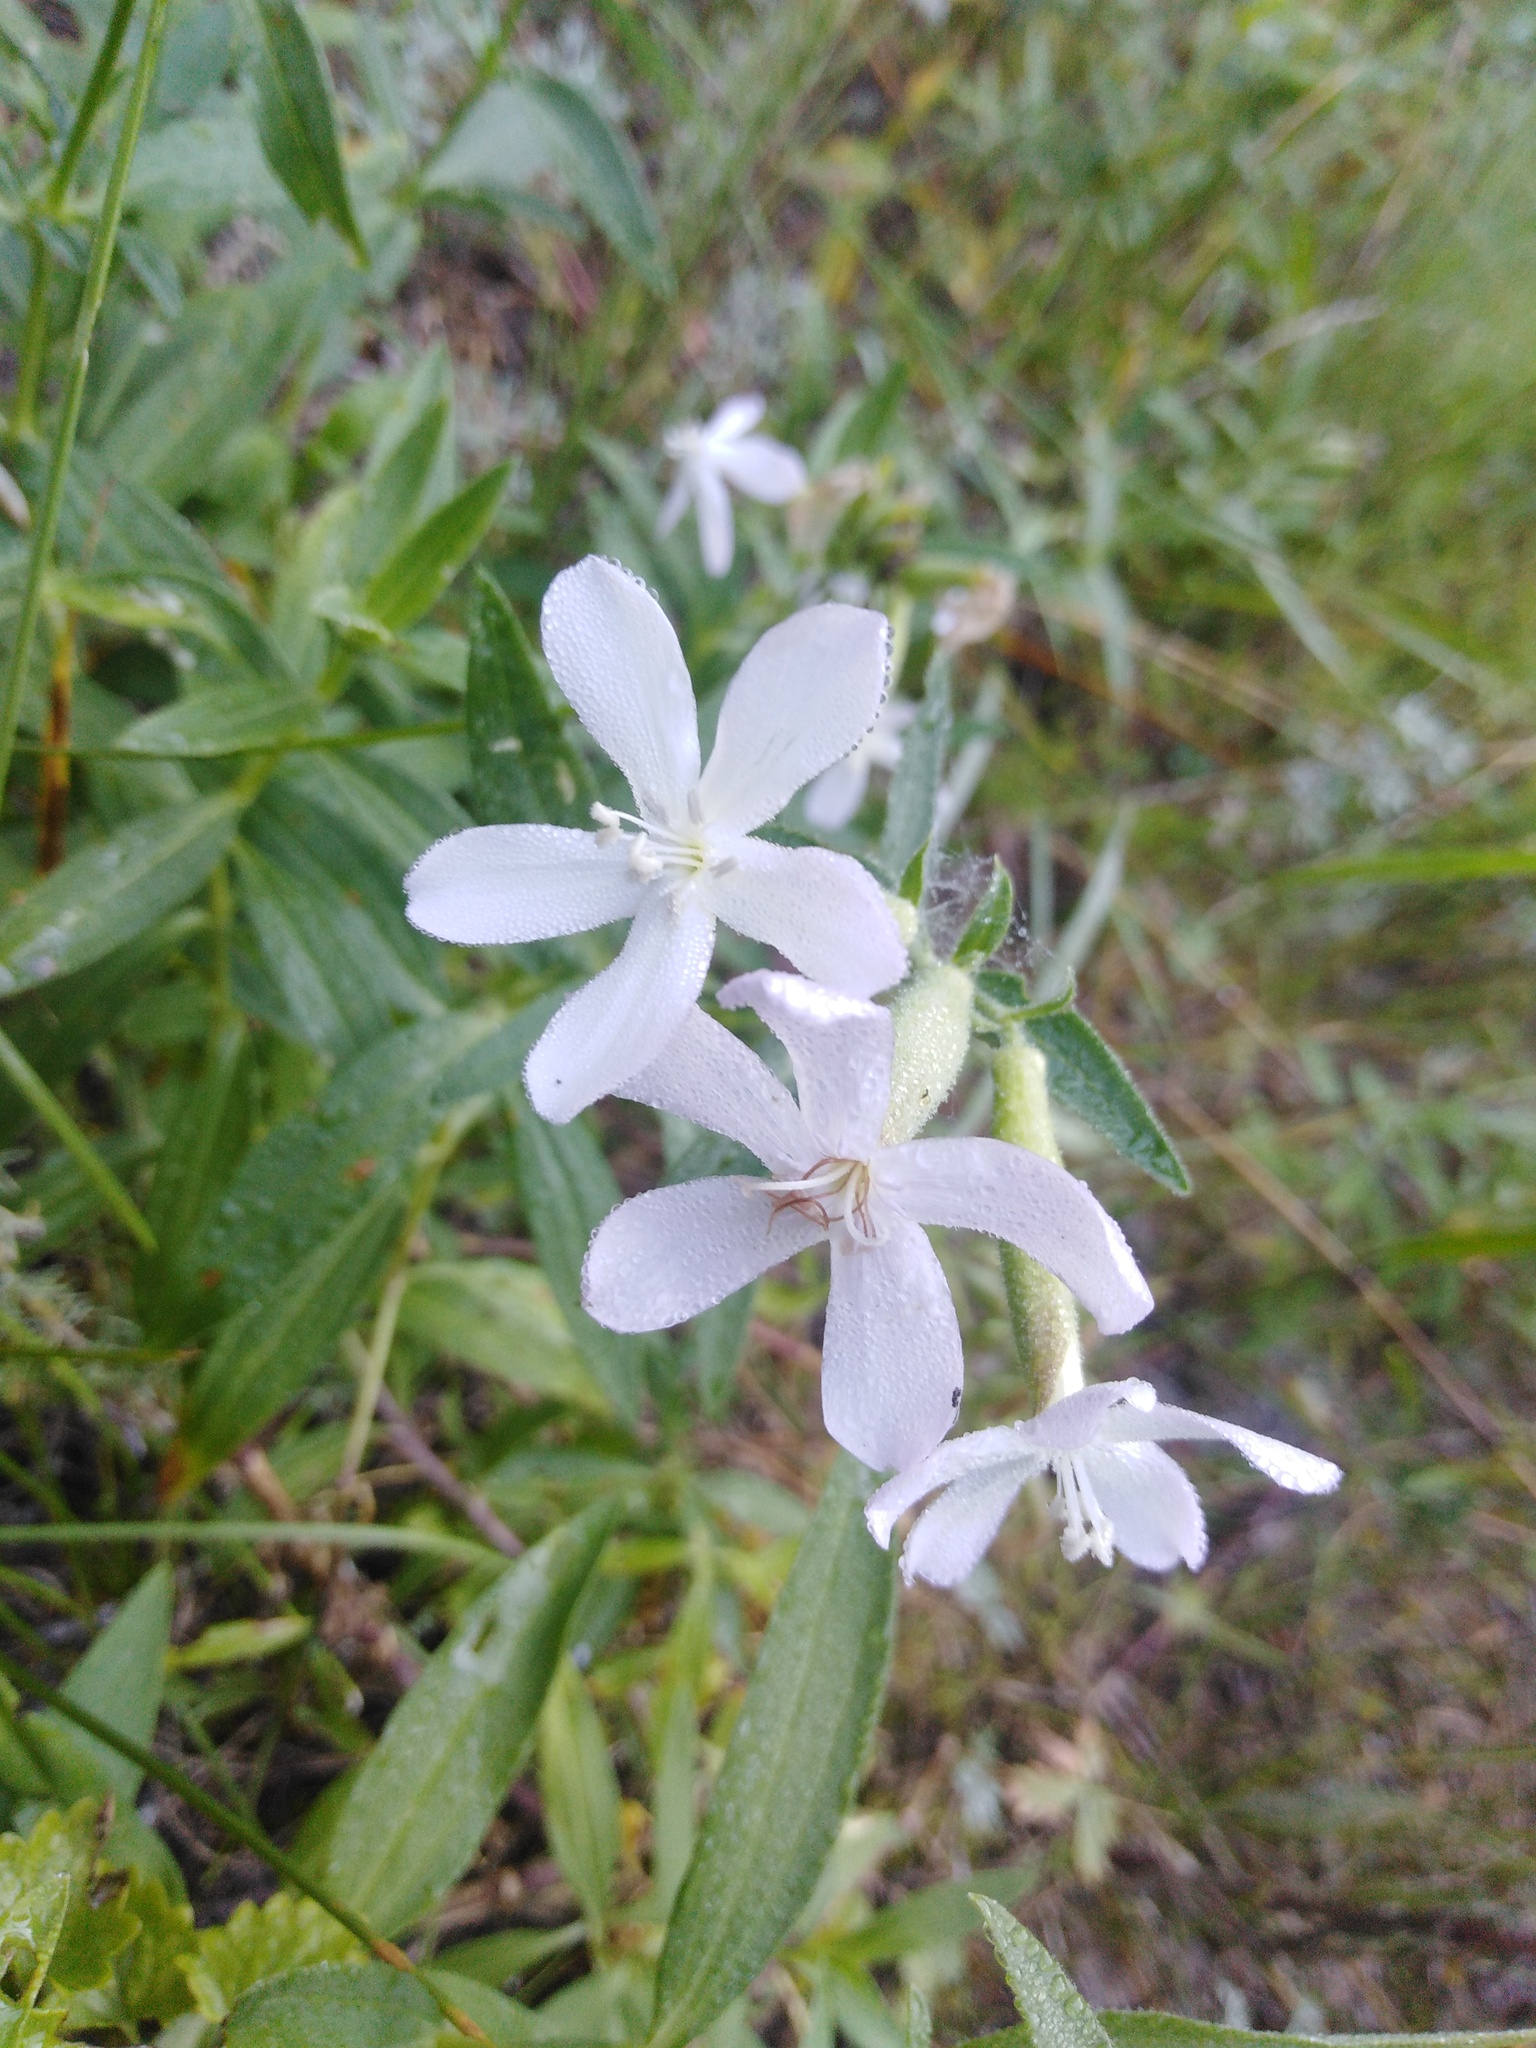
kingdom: Plantae
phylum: Tracheophyta
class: Magnoliopsida
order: Caryophyllales
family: Caryophyllaceae
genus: Saponaria
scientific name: Saponaria officinalis
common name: Soapwort
